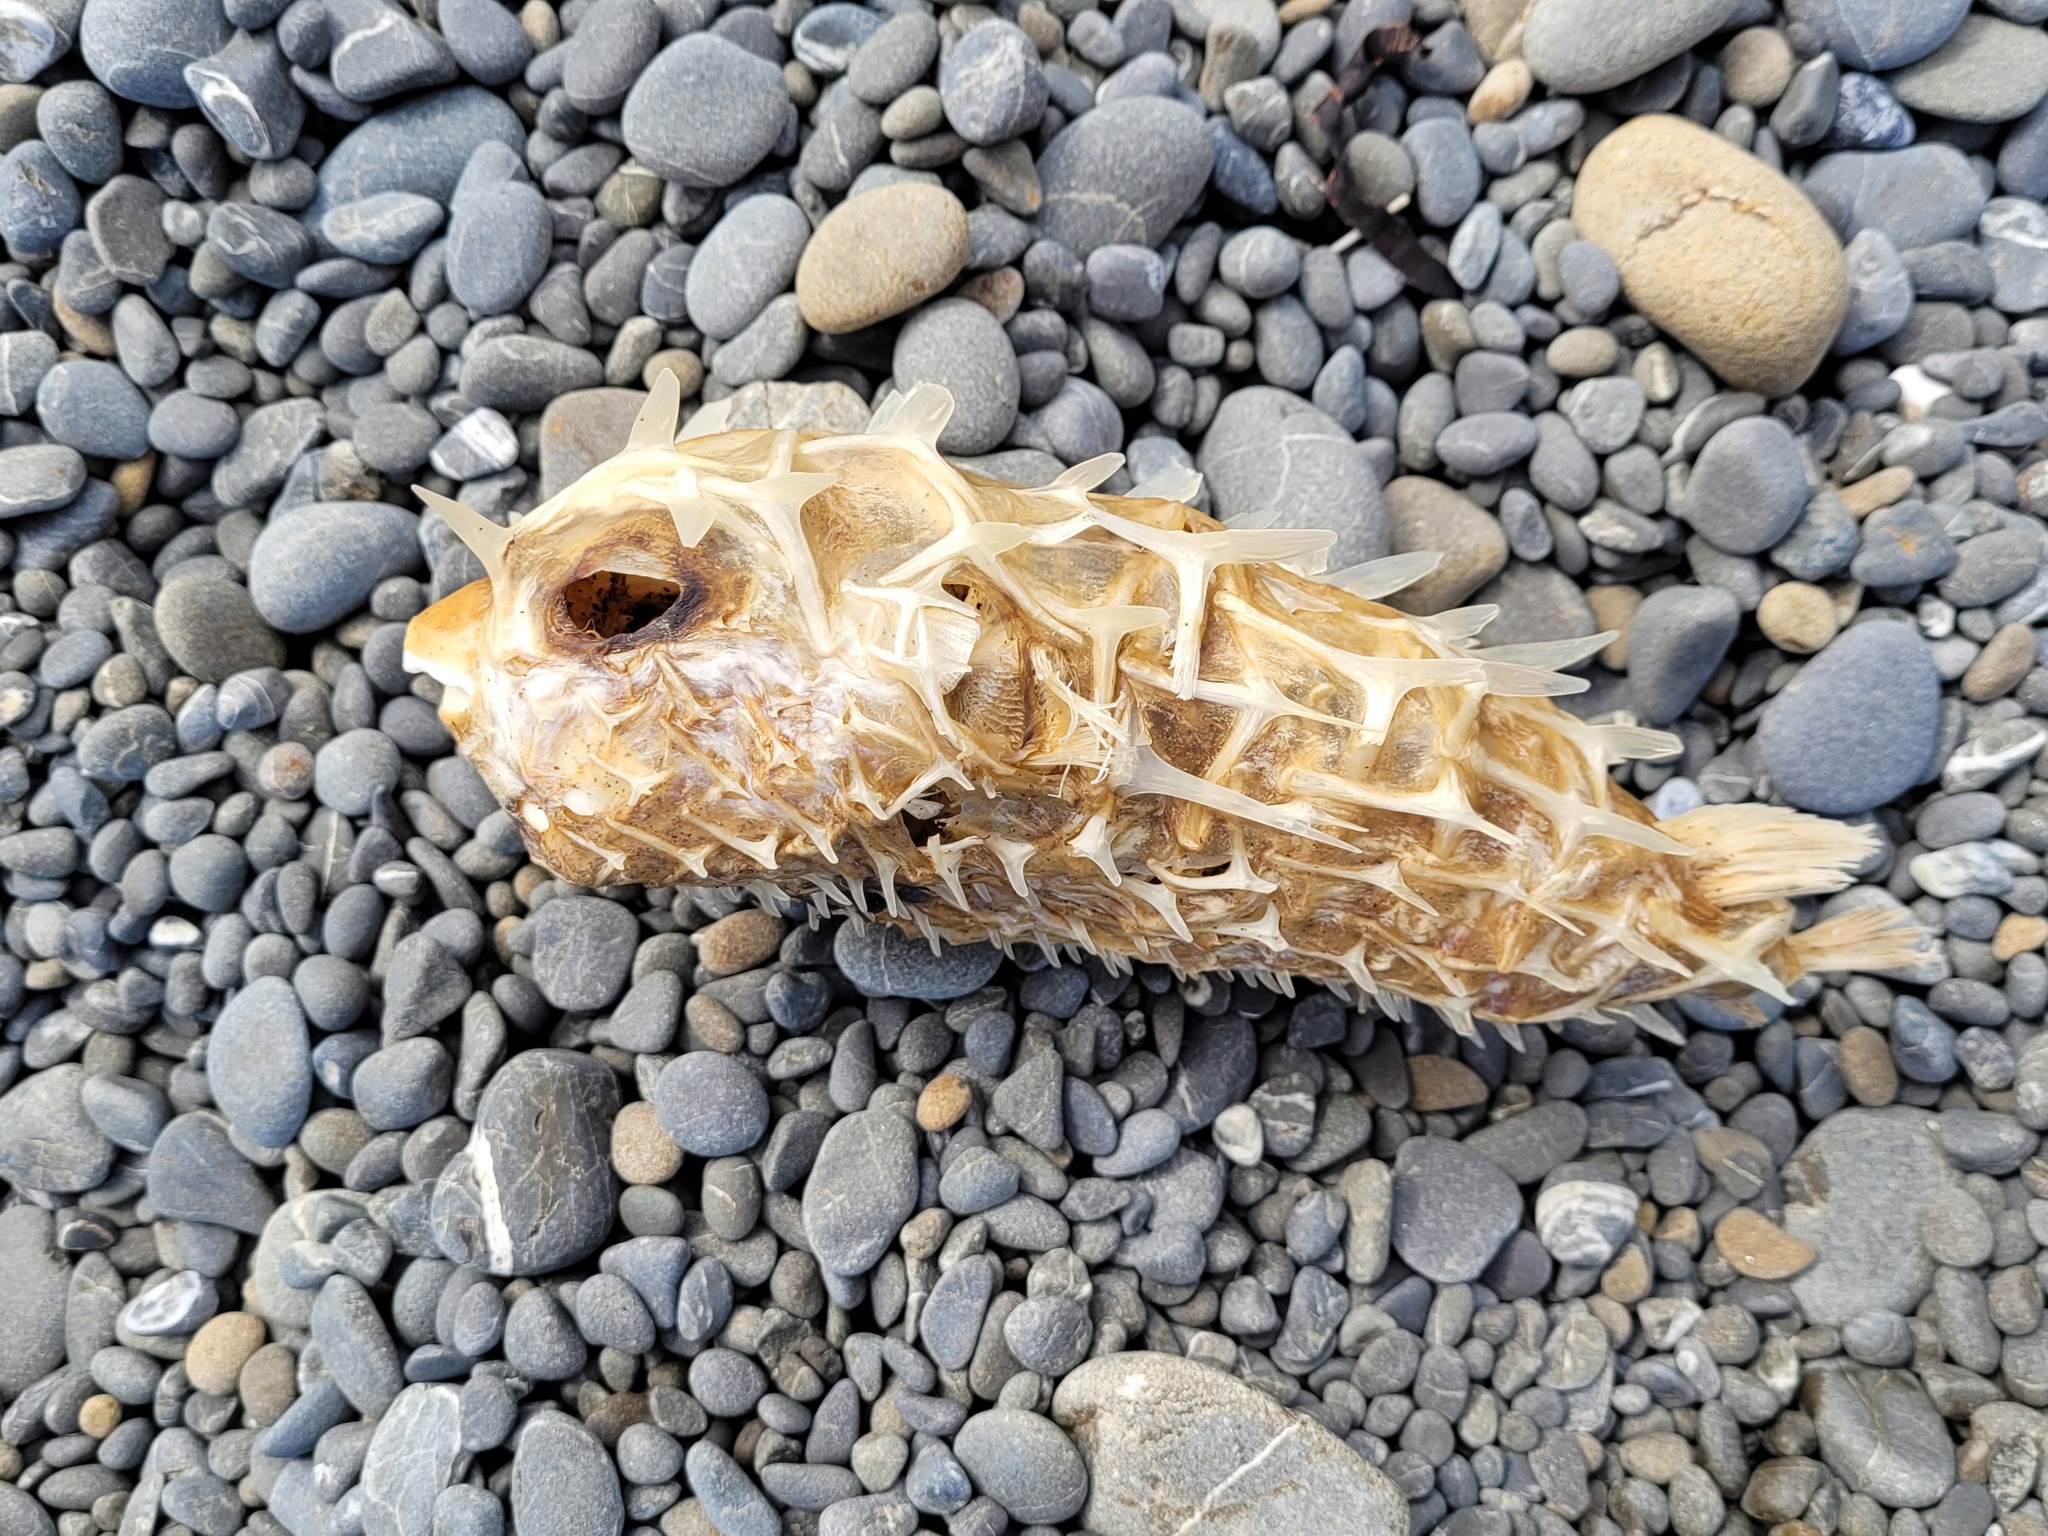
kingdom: Animalia
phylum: Chordata
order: Tetraodontiformes
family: Diodontidae
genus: Allomycterus
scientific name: Allomycterus pilatus
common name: No common name
